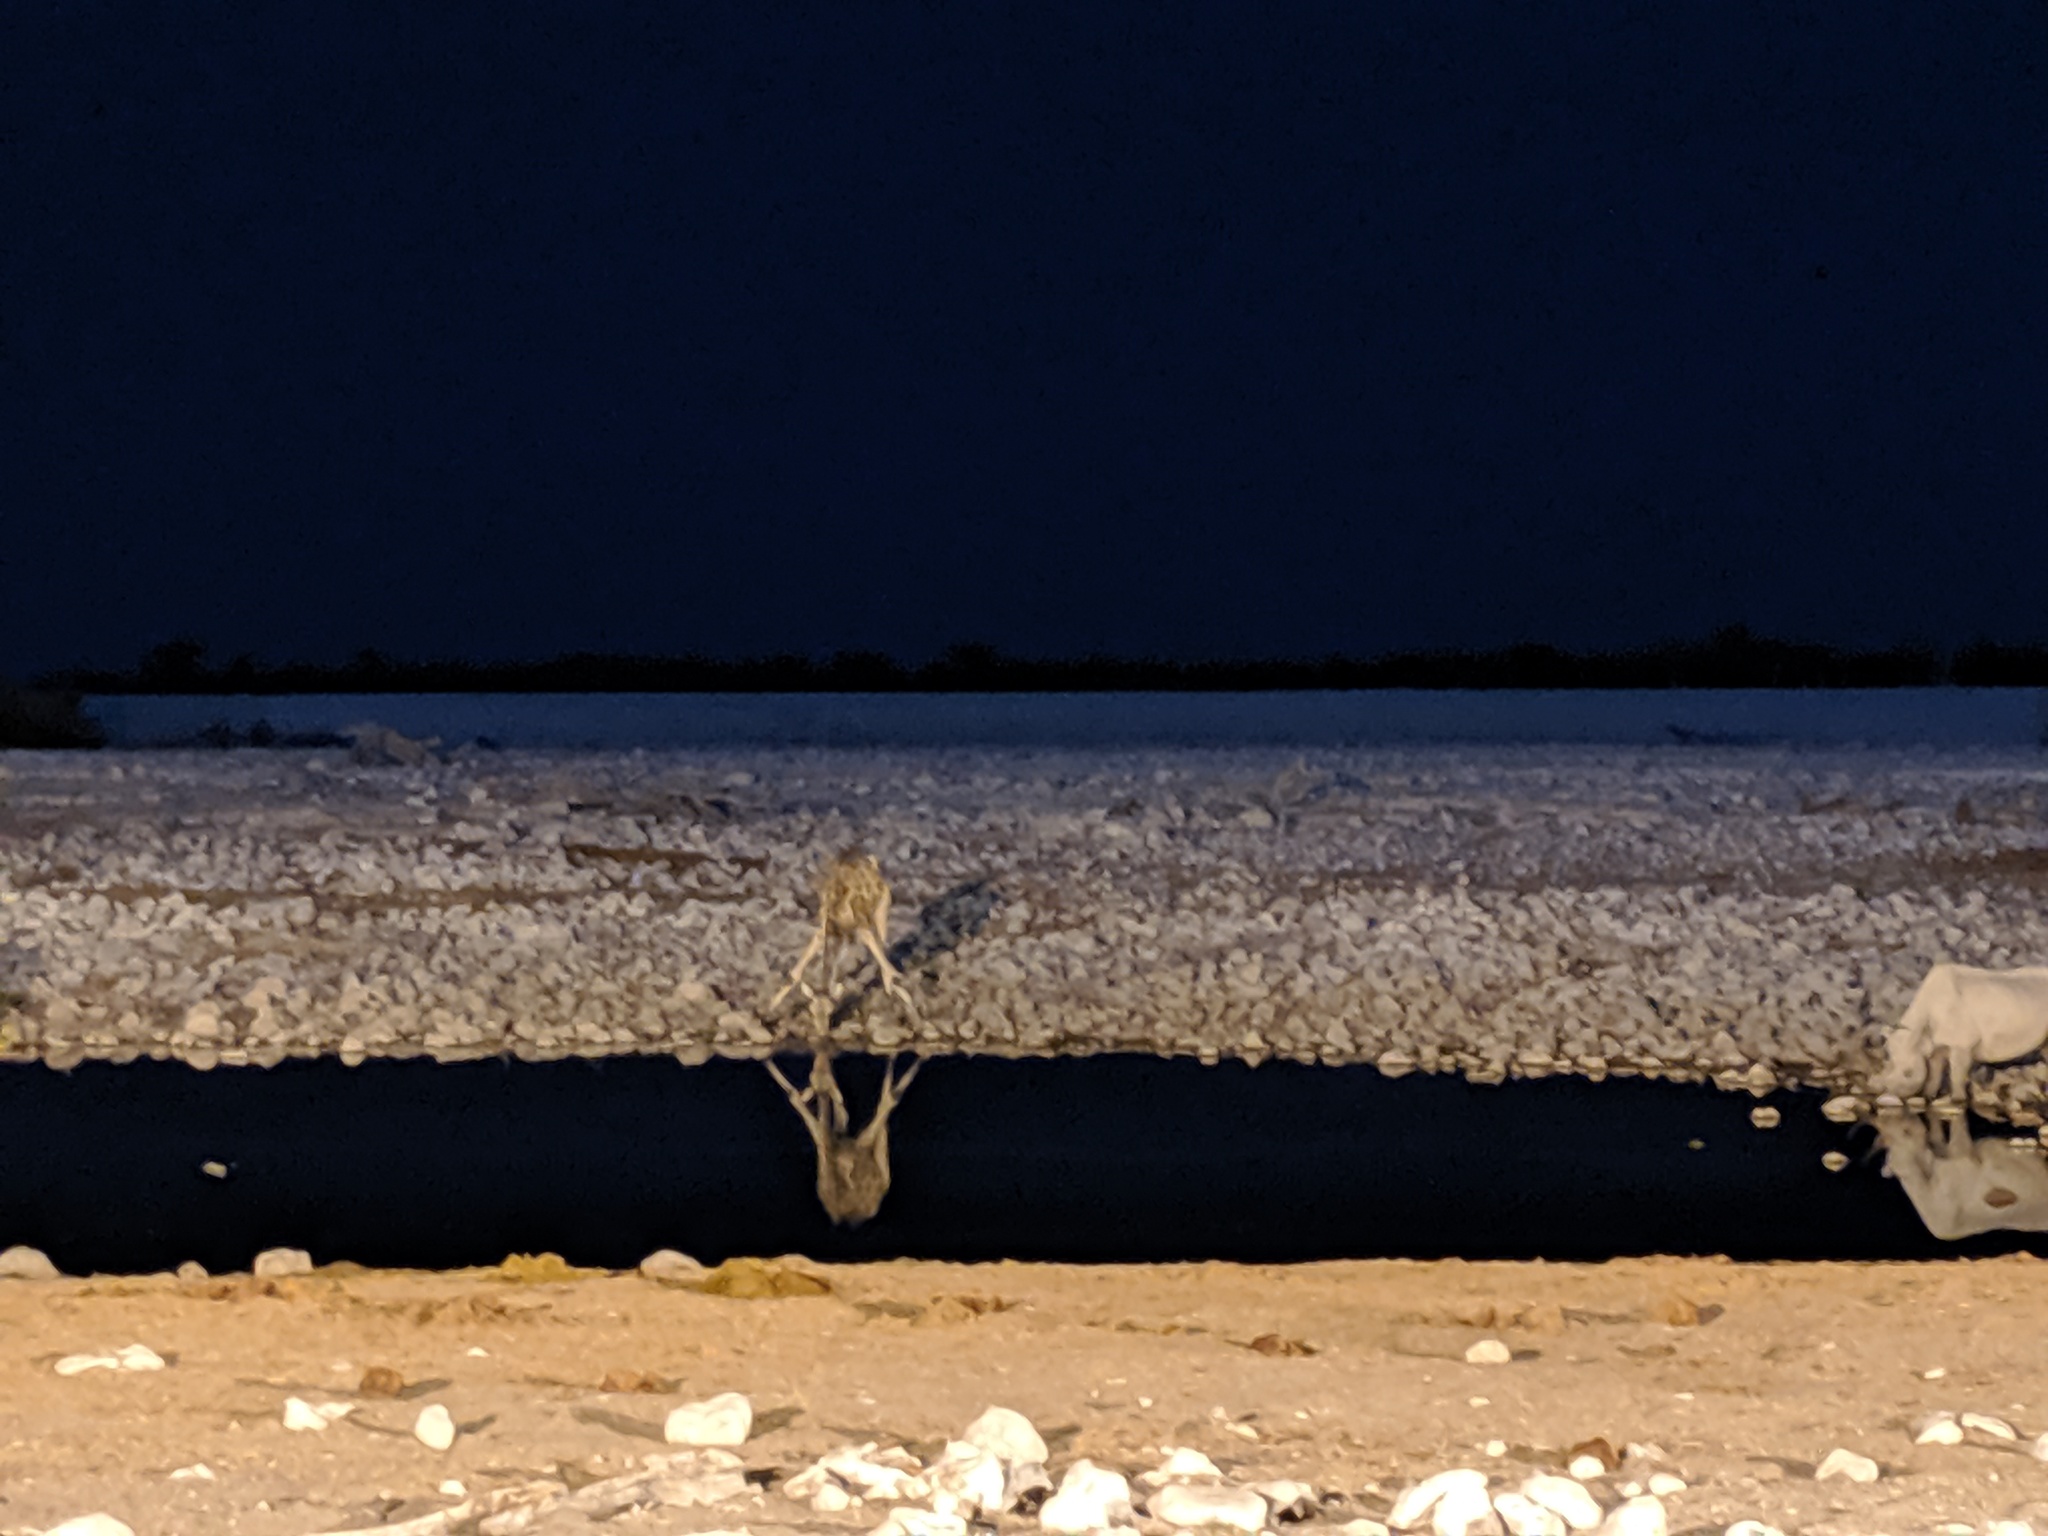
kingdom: Animalia
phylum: Chordata
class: Mammalia
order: Artiodactyla
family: Giraffidae
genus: Giraffa
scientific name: Giraffa giraffa
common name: Southern giraffe
